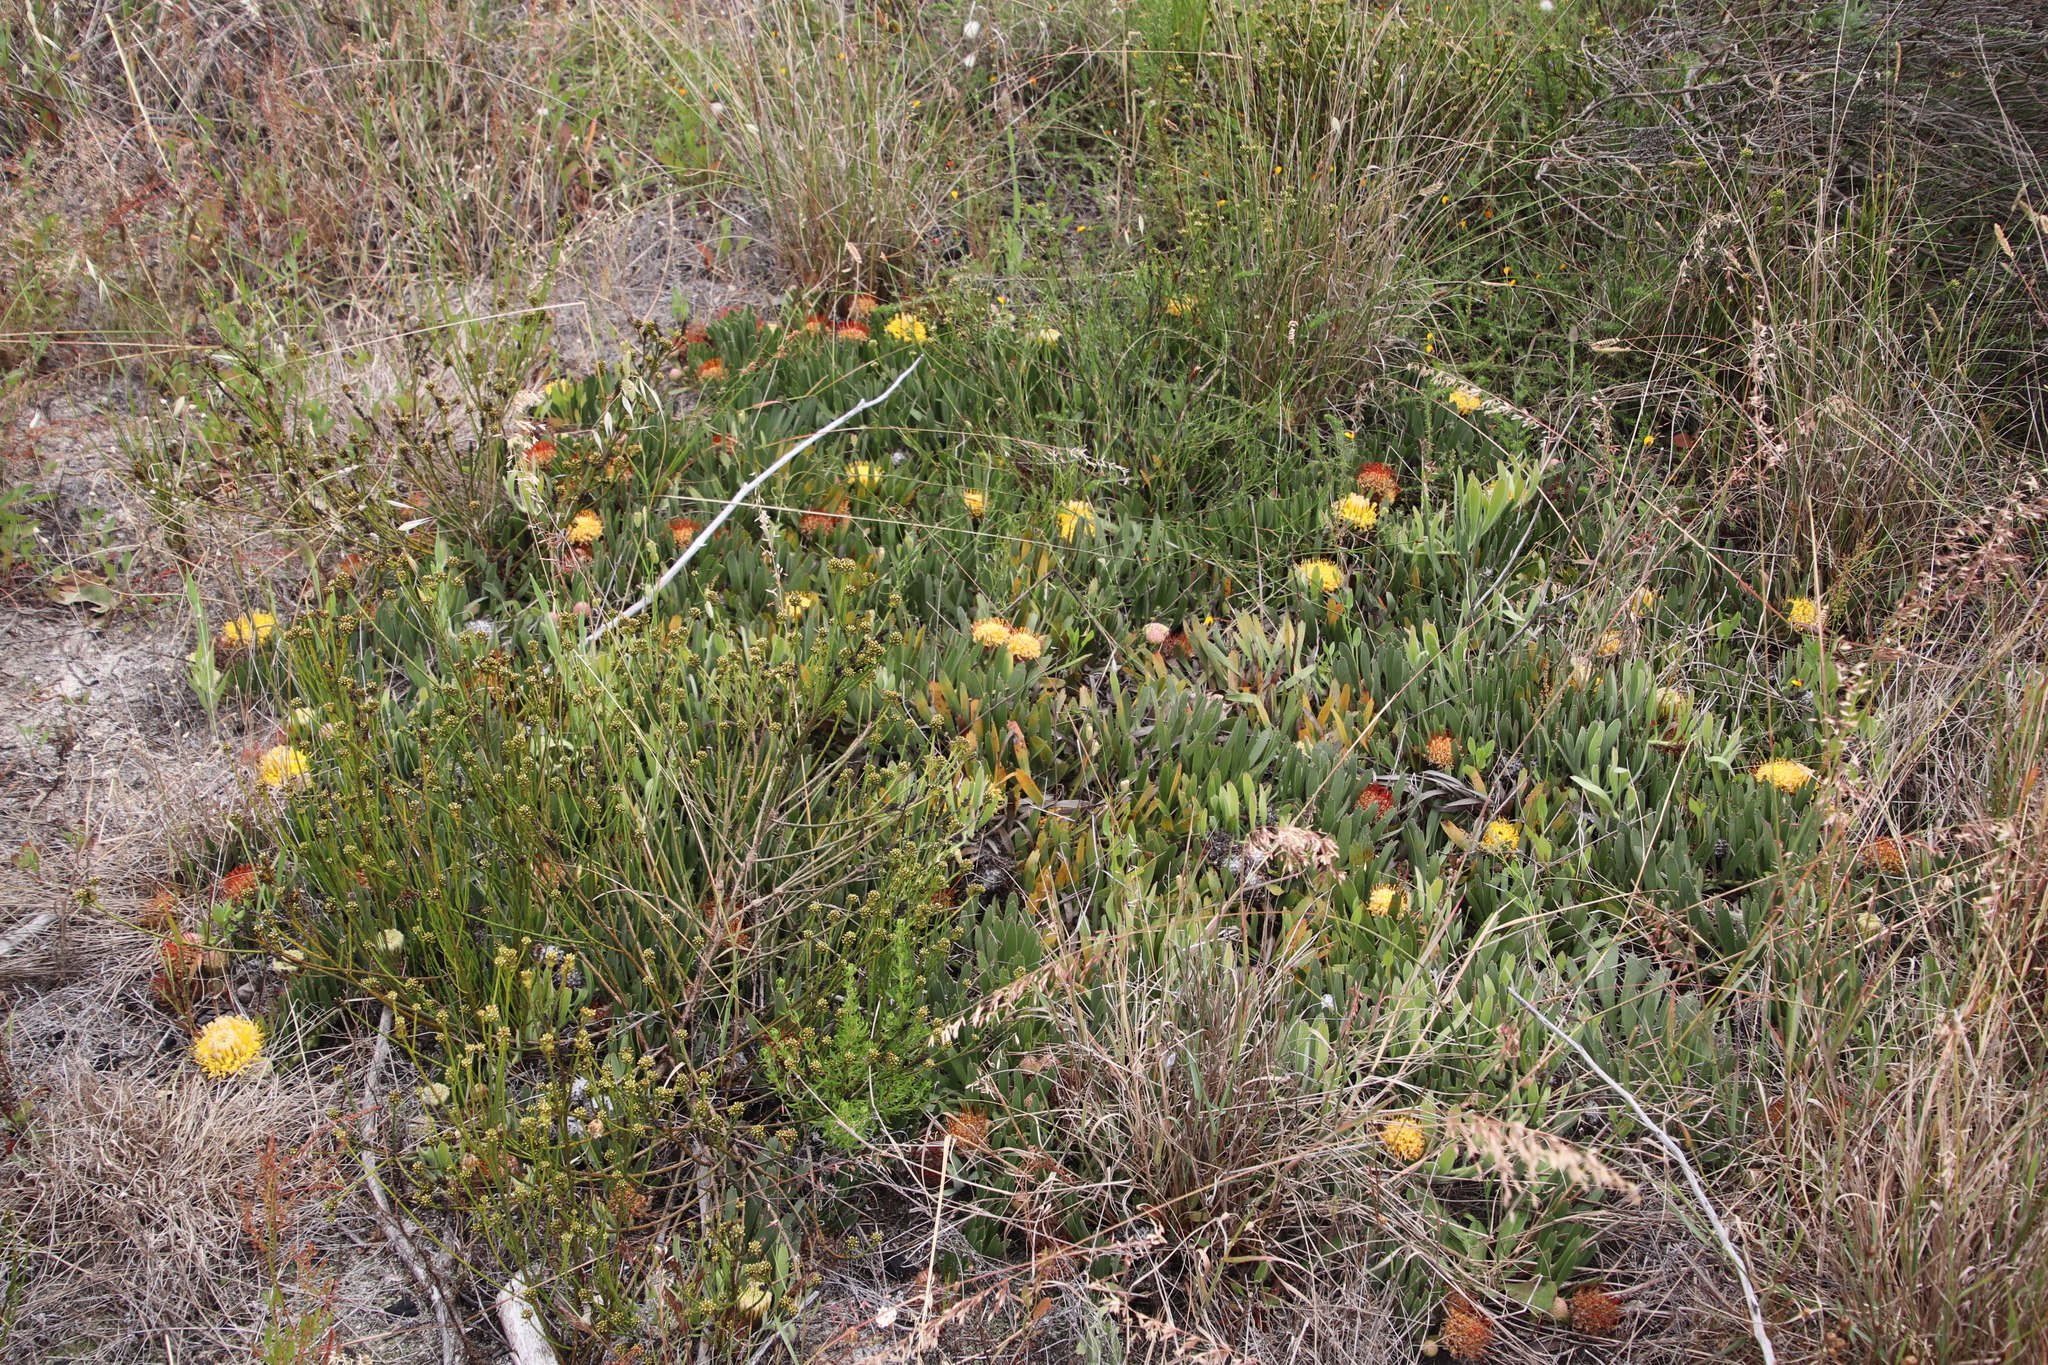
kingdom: Plantae
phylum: Tracheophyta
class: Magnoliopsida
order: Proteales
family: Proteaceae
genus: Leucospermum
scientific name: Leucospermum hypophyllocarpodendron
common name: Snakestem pincushion
